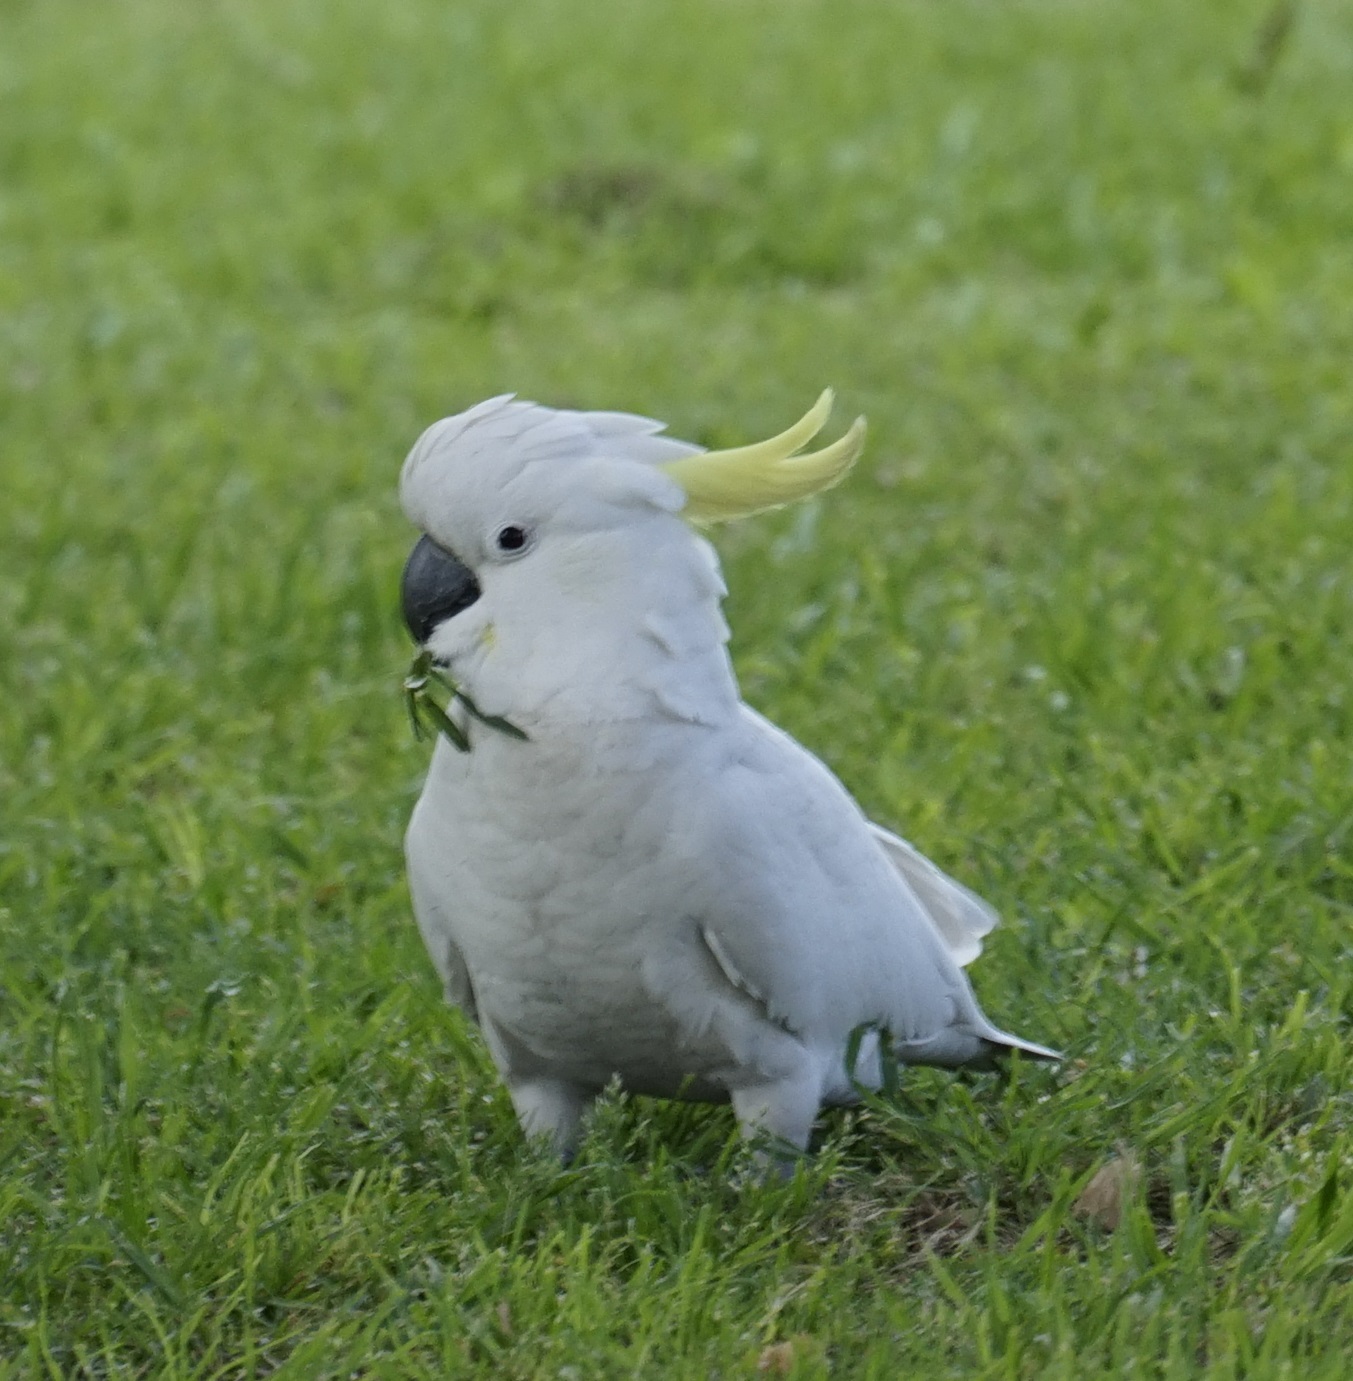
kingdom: Animalia
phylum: Chordata
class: Aves
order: Psittaciformes
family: Psittacidae
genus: Cacatua
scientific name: Cacatua galerita
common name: Sulphur-crested cockatoo
